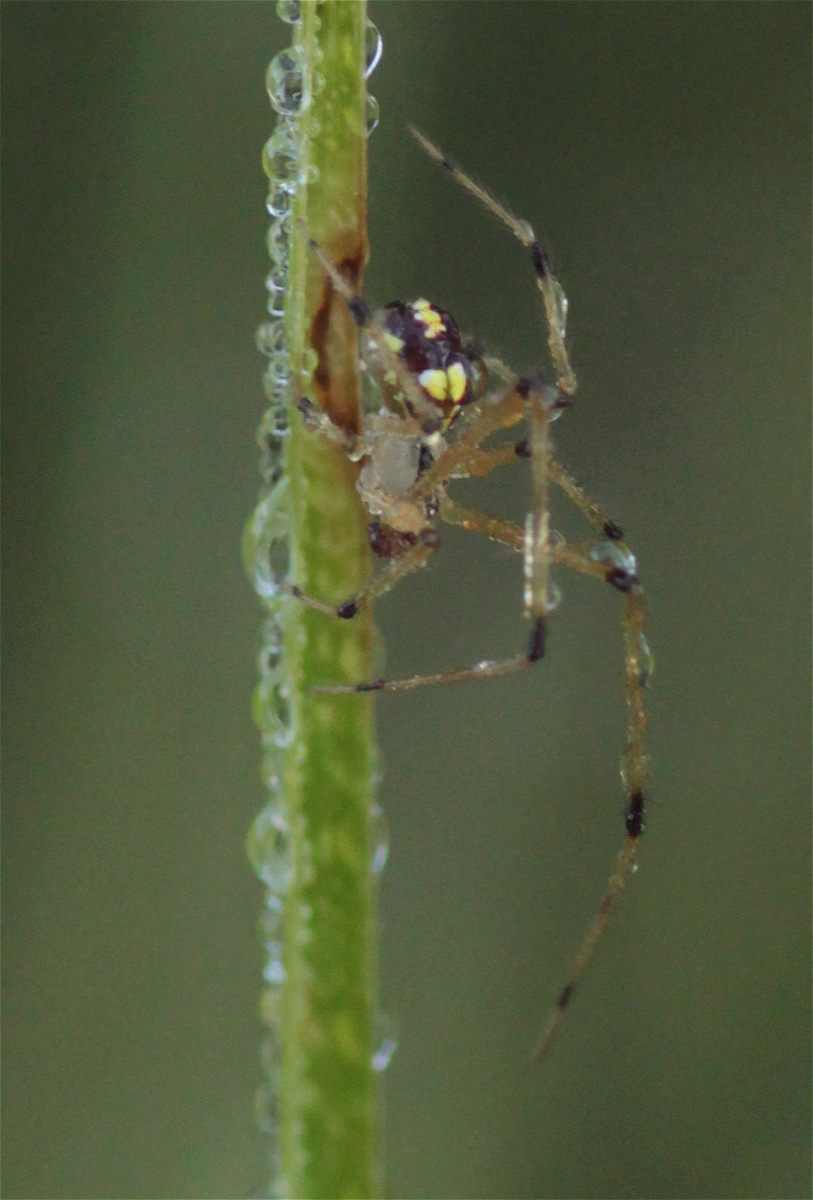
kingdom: Animalia
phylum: Arthropoda
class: Arachnida
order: Araneae
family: Theridiidae
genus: Theridion
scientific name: Theridion frizzellorum
